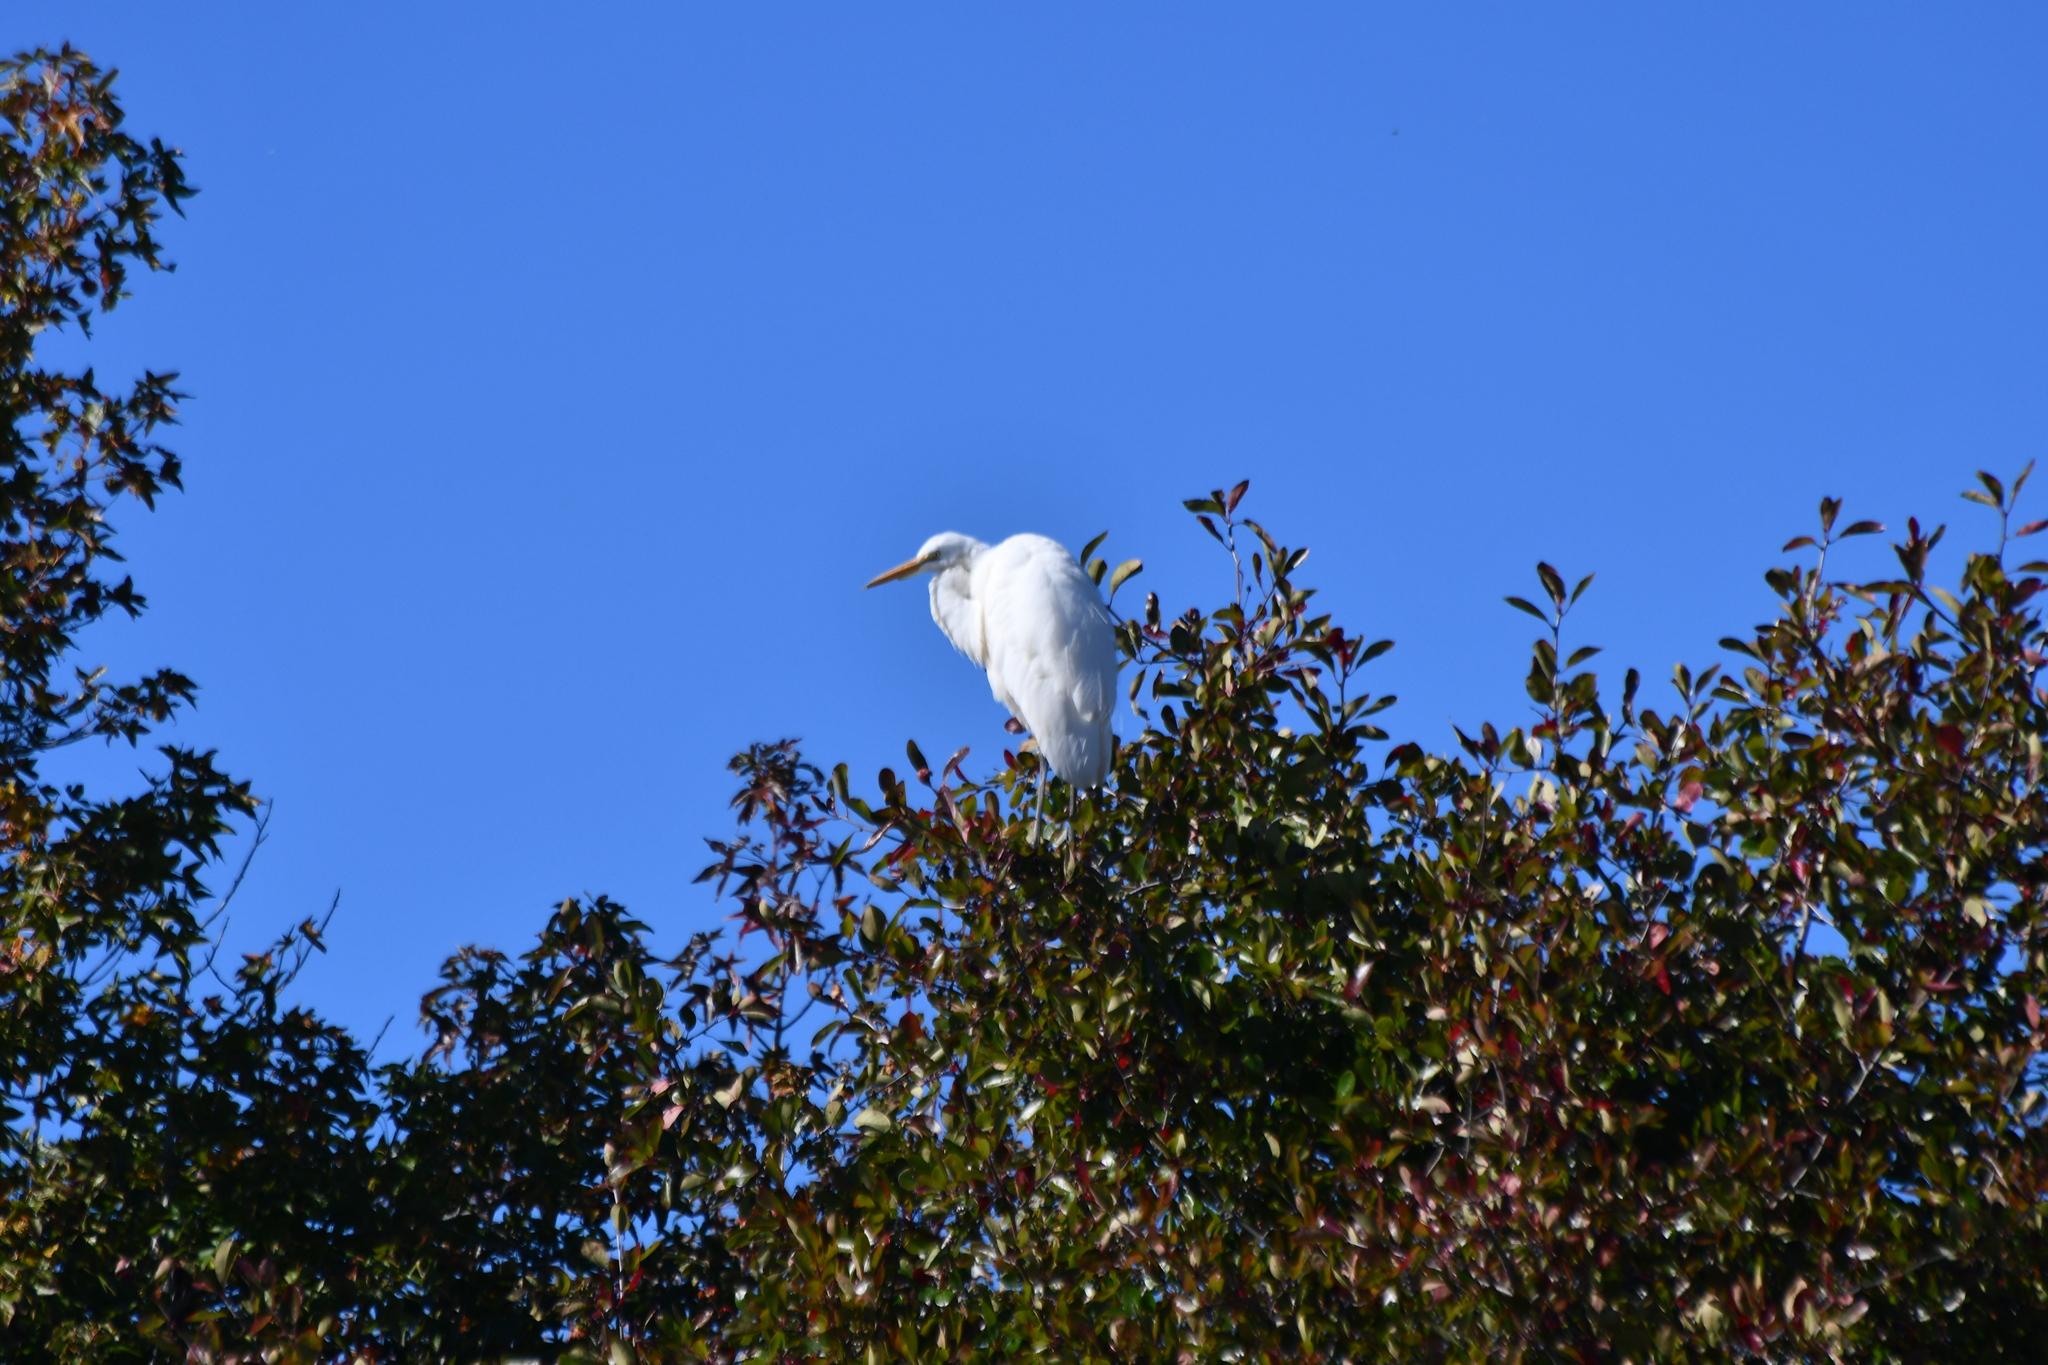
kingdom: Animalia
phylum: Chordata
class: Aves
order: Pelecaniformes
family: Ardeidae
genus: Ardea
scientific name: Ardea alba
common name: Great egret
